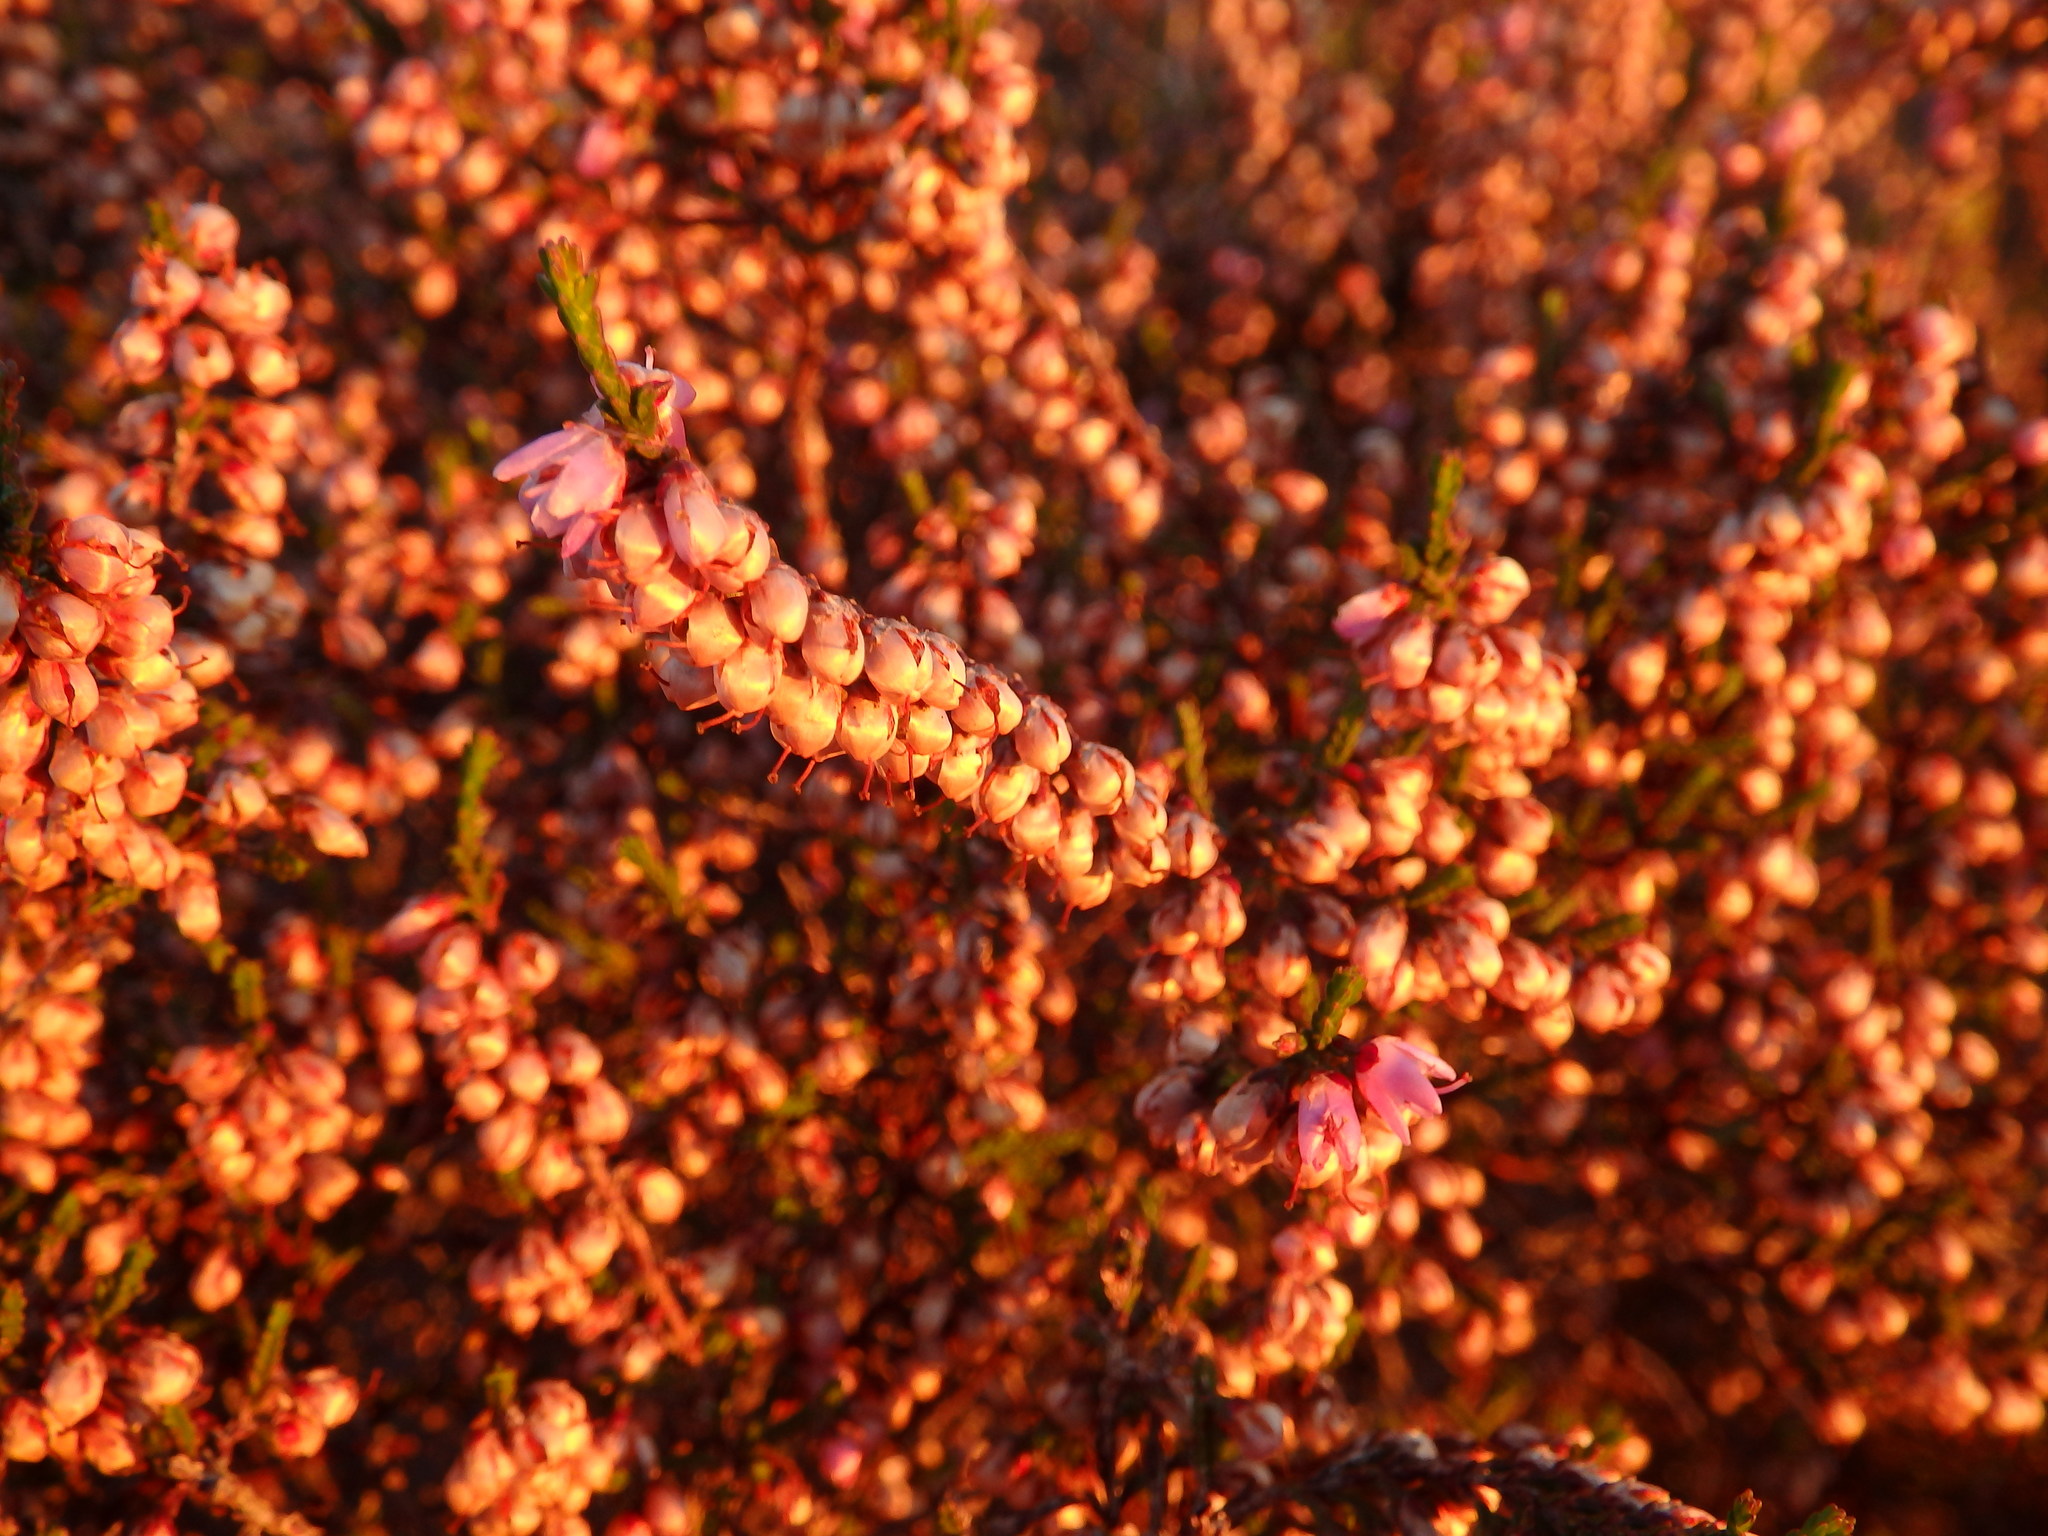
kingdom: Plantae
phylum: Tracheophyta
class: Magnoliopsida
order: Ericales
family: Ericaceae
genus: Calluna
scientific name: Calluna vulgaris
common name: Heather
